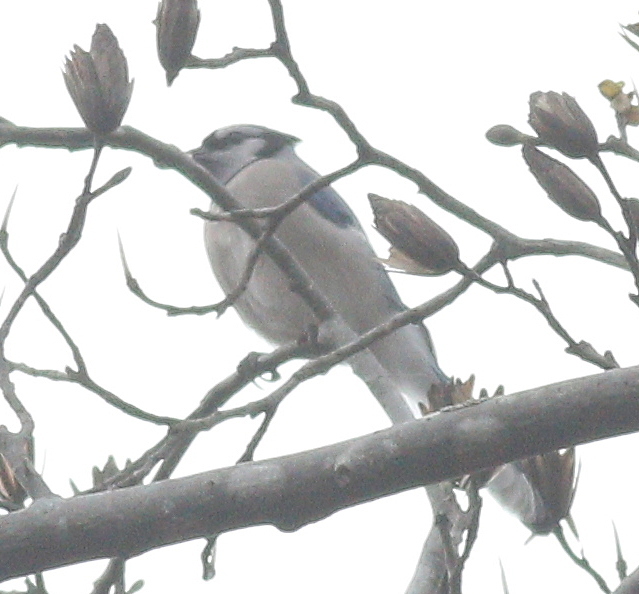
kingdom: Animalia
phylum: Chordata
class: Aves
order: Passeriformes
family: Corvidae
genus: Cyanocitta
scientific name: Cyanocitta cristata
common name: Blue jay
